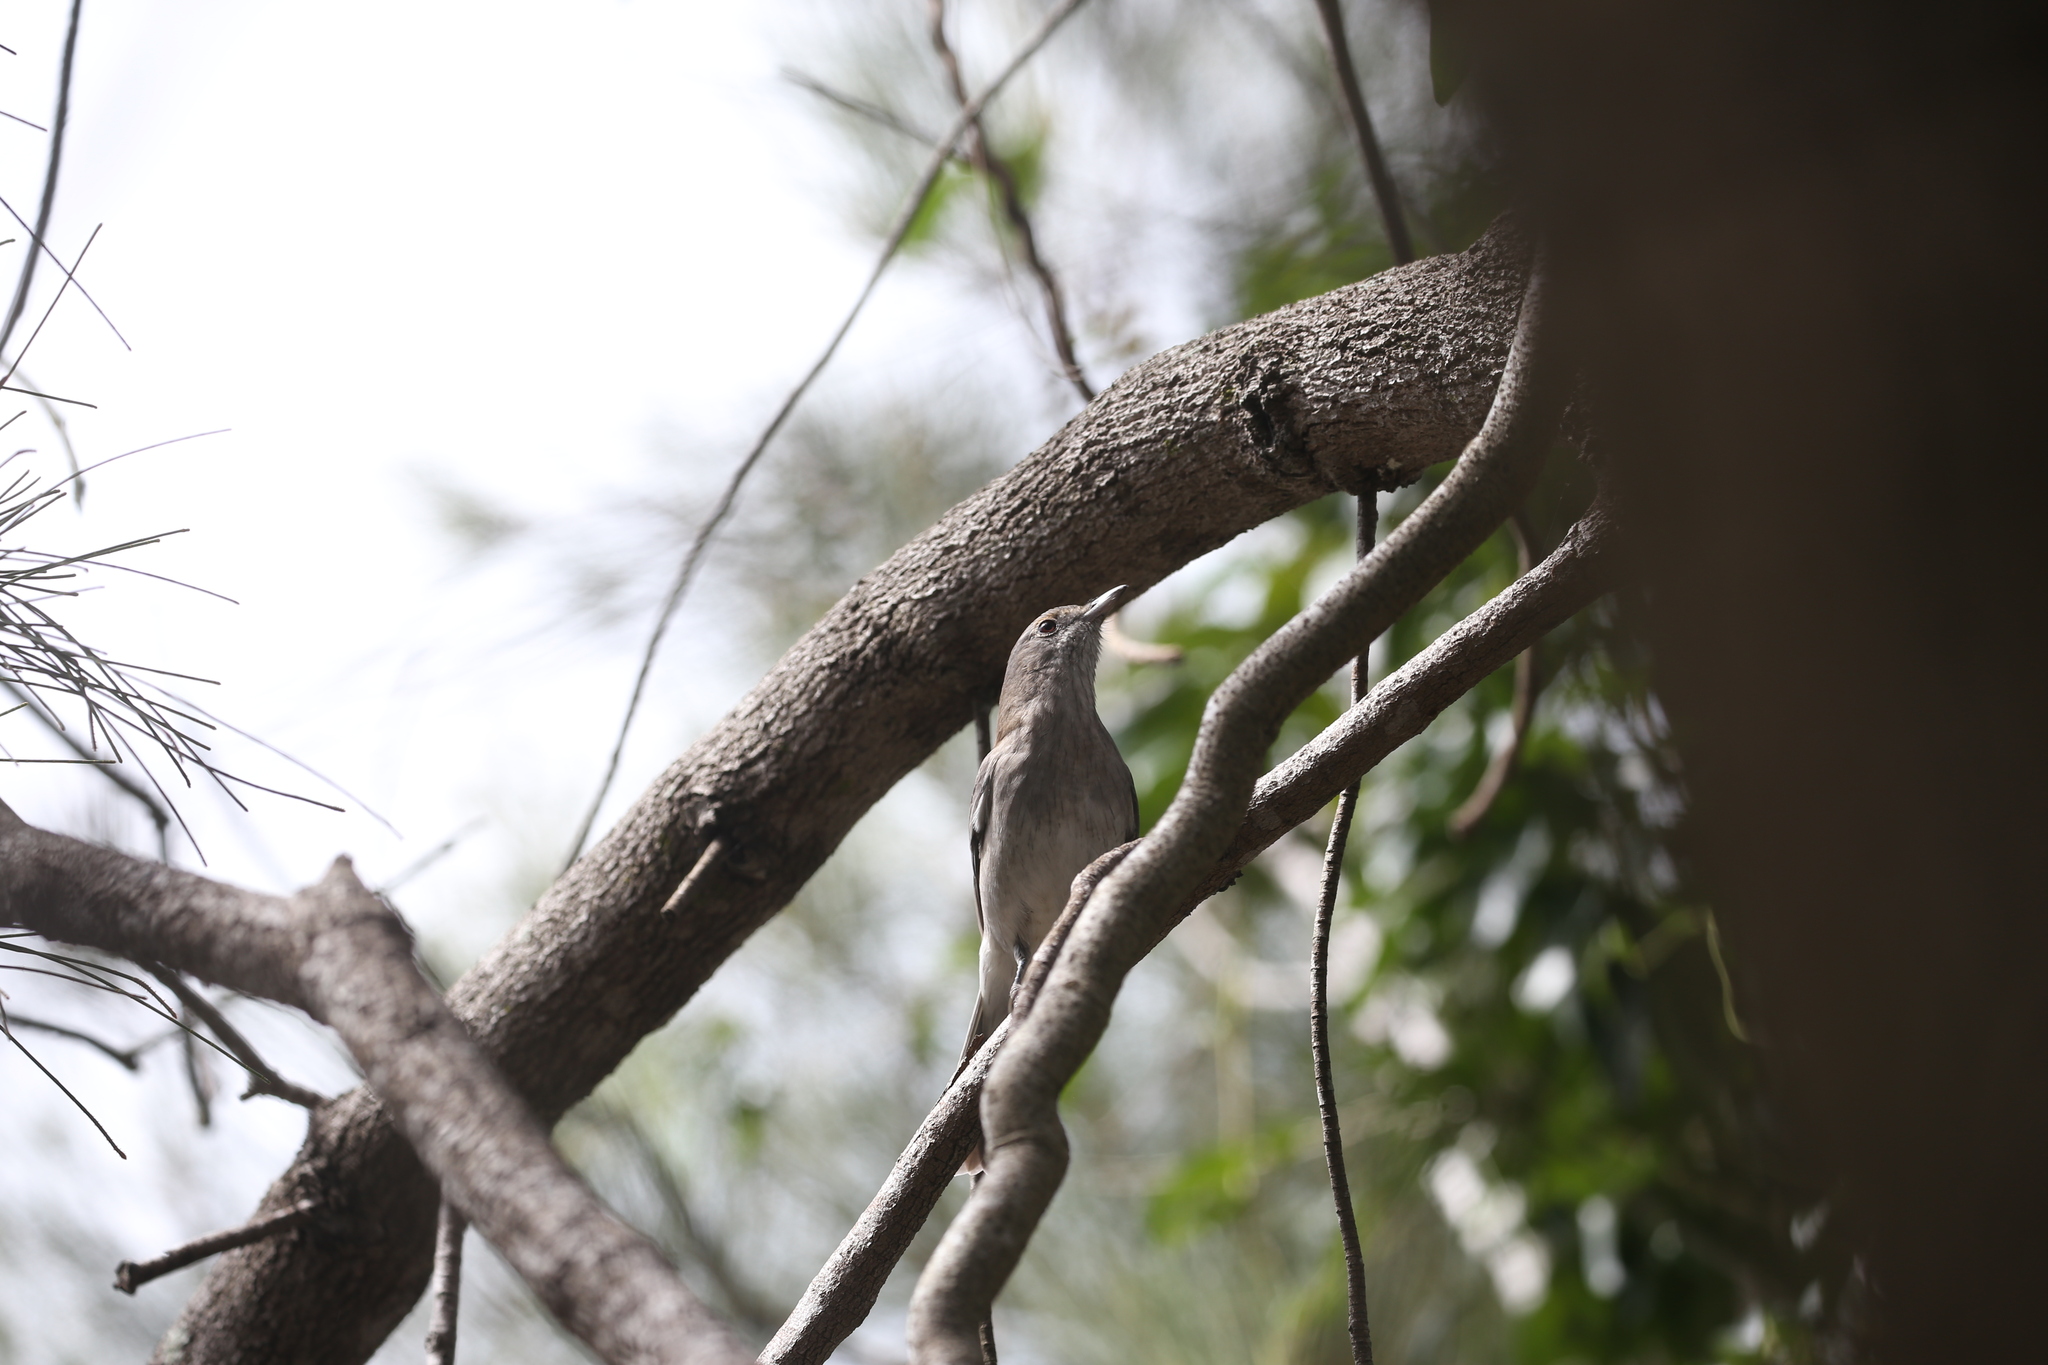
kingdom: Animalia
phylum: Chordata
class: Aves
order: Passeriformes
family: Pachycephalidae
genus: Colluricincla
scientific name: Colluricincla harmonica
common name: Grey shrikethrush
